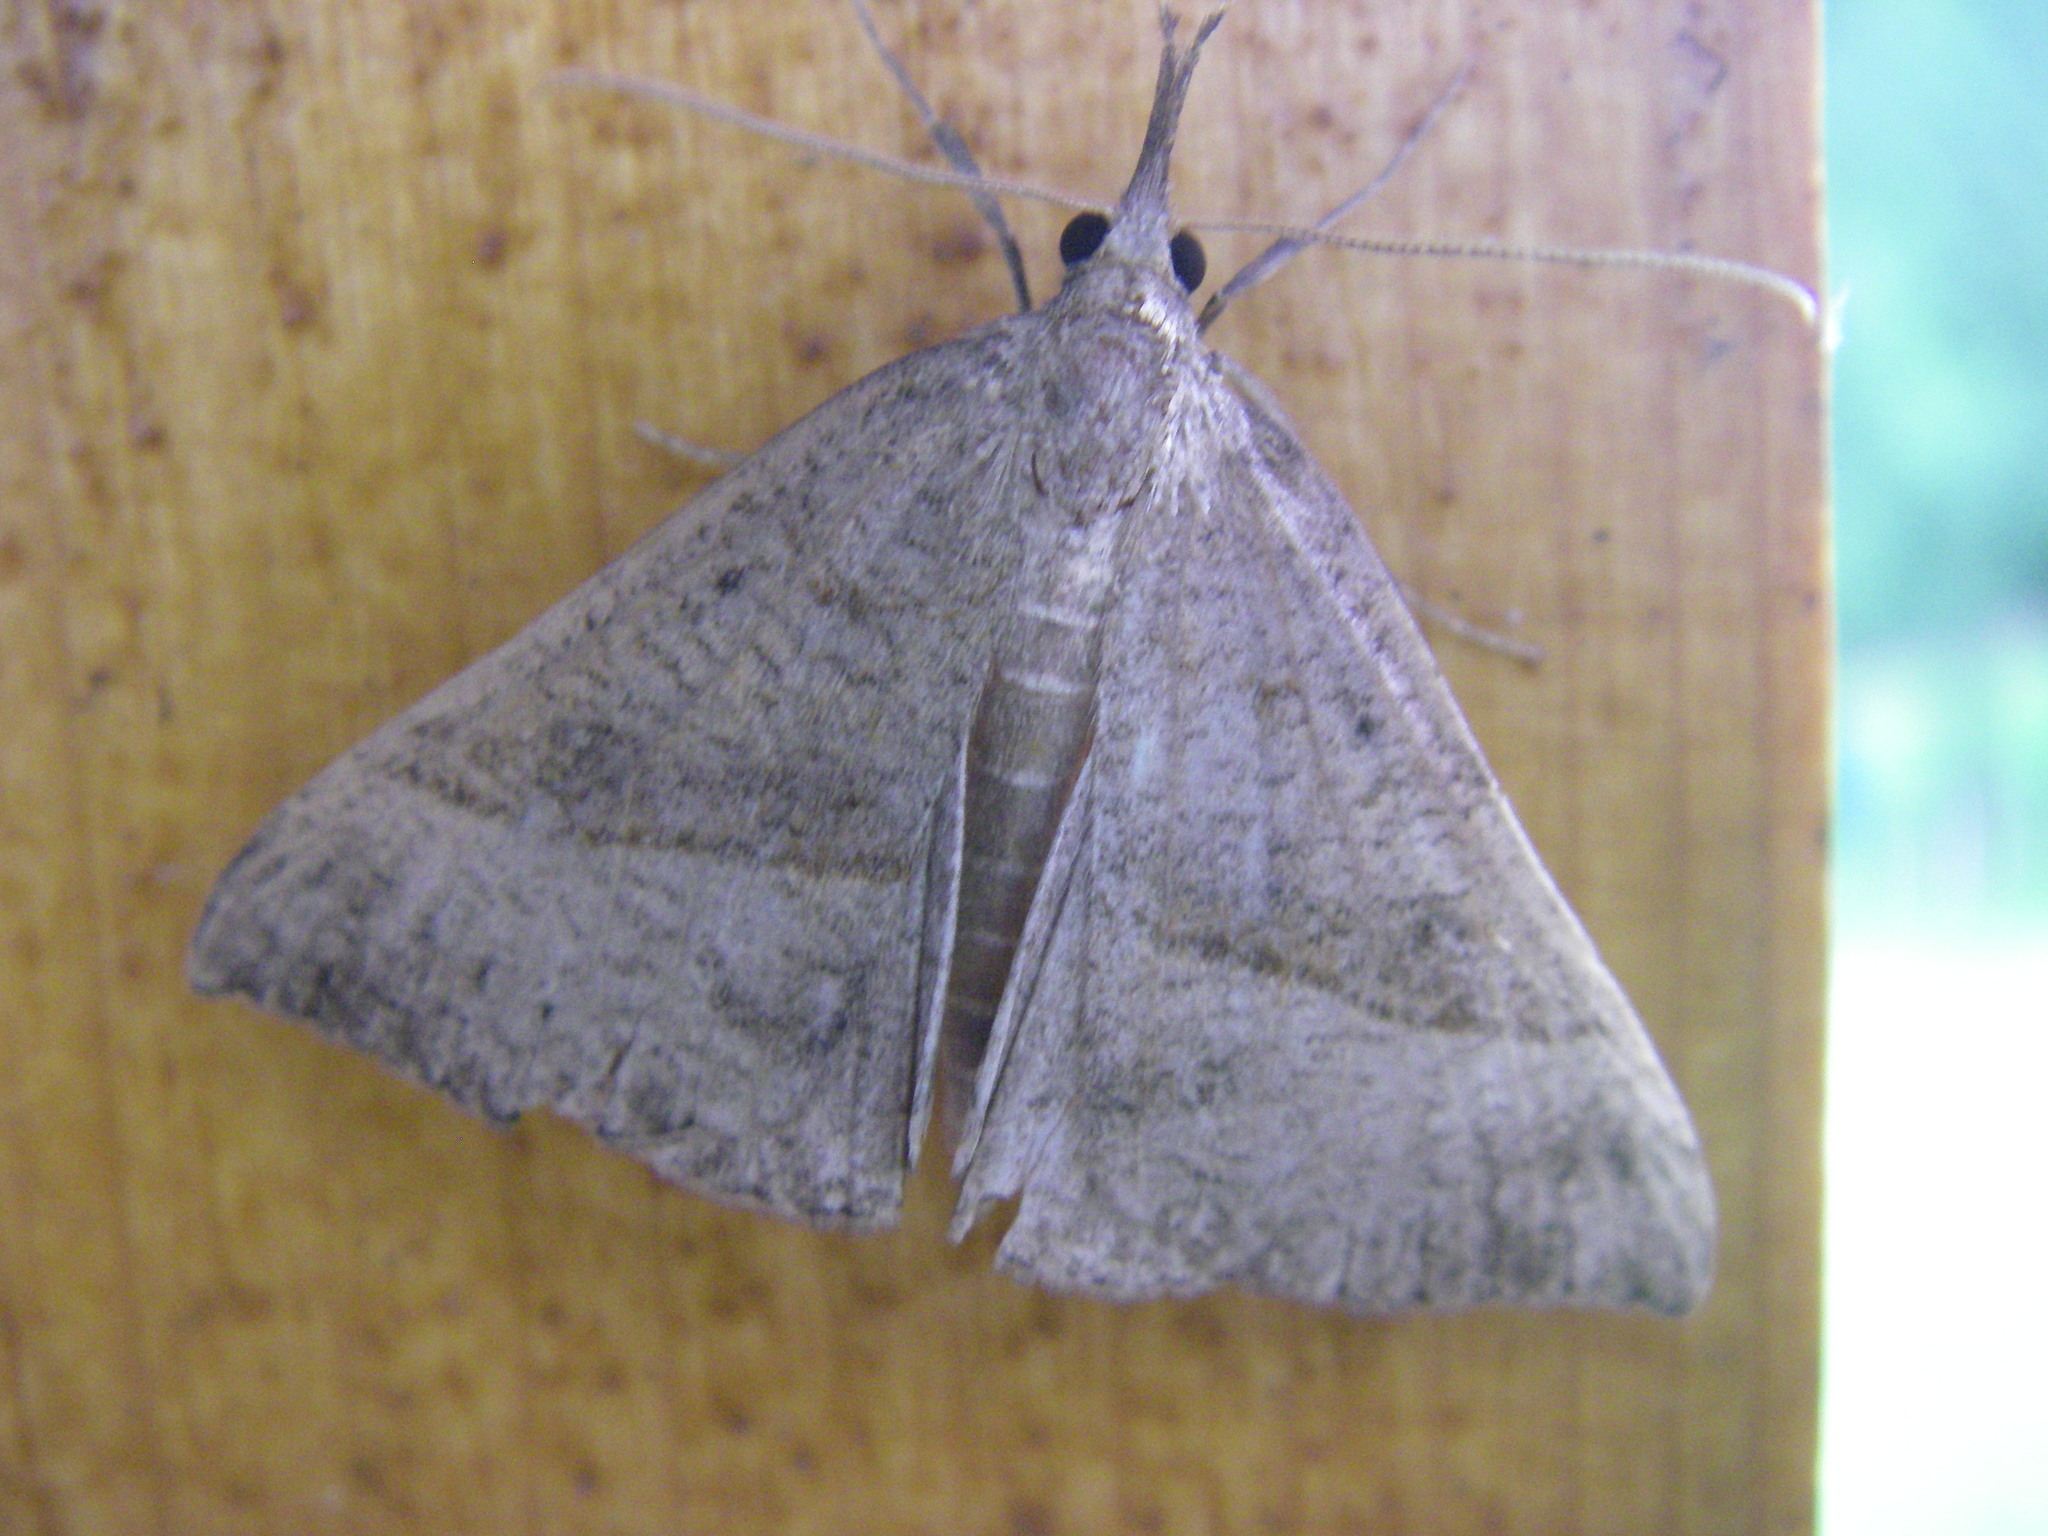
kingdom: Animalia
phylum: Arthropoda
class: Insecta
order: Lepidoptera
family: Erebidae
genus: Hypena
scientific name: Hypena proboscidalis
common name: Snout
